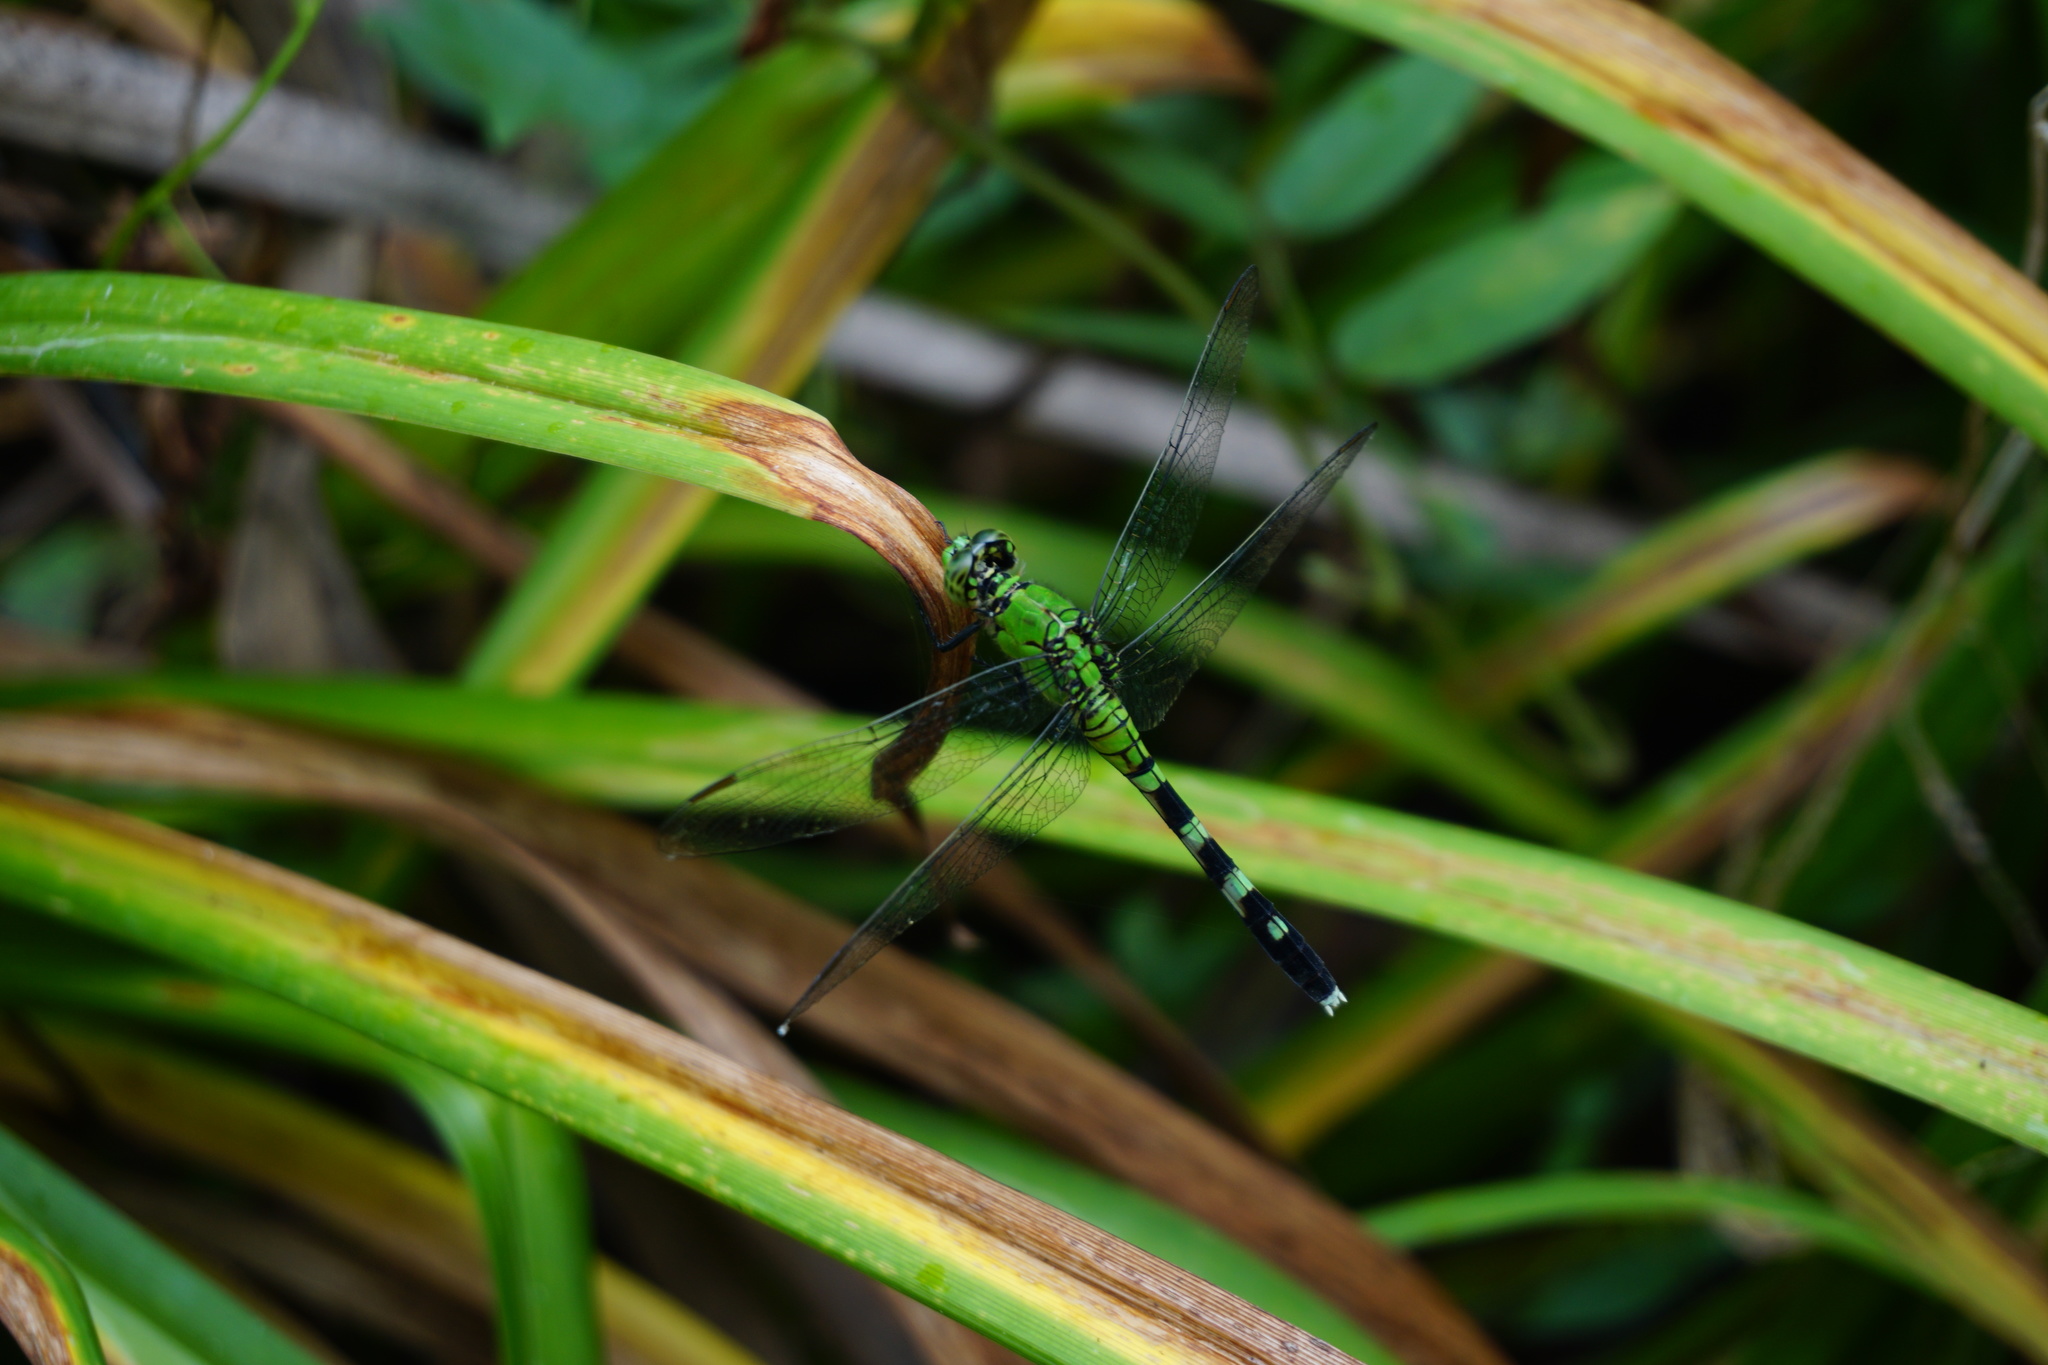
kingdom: Animalia
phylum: Arthropoda
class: Insecta
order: Odonata
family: Libellulidae
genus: Erythemis
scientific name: Erythemis simplicicollis
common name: Eastern pondhawk
